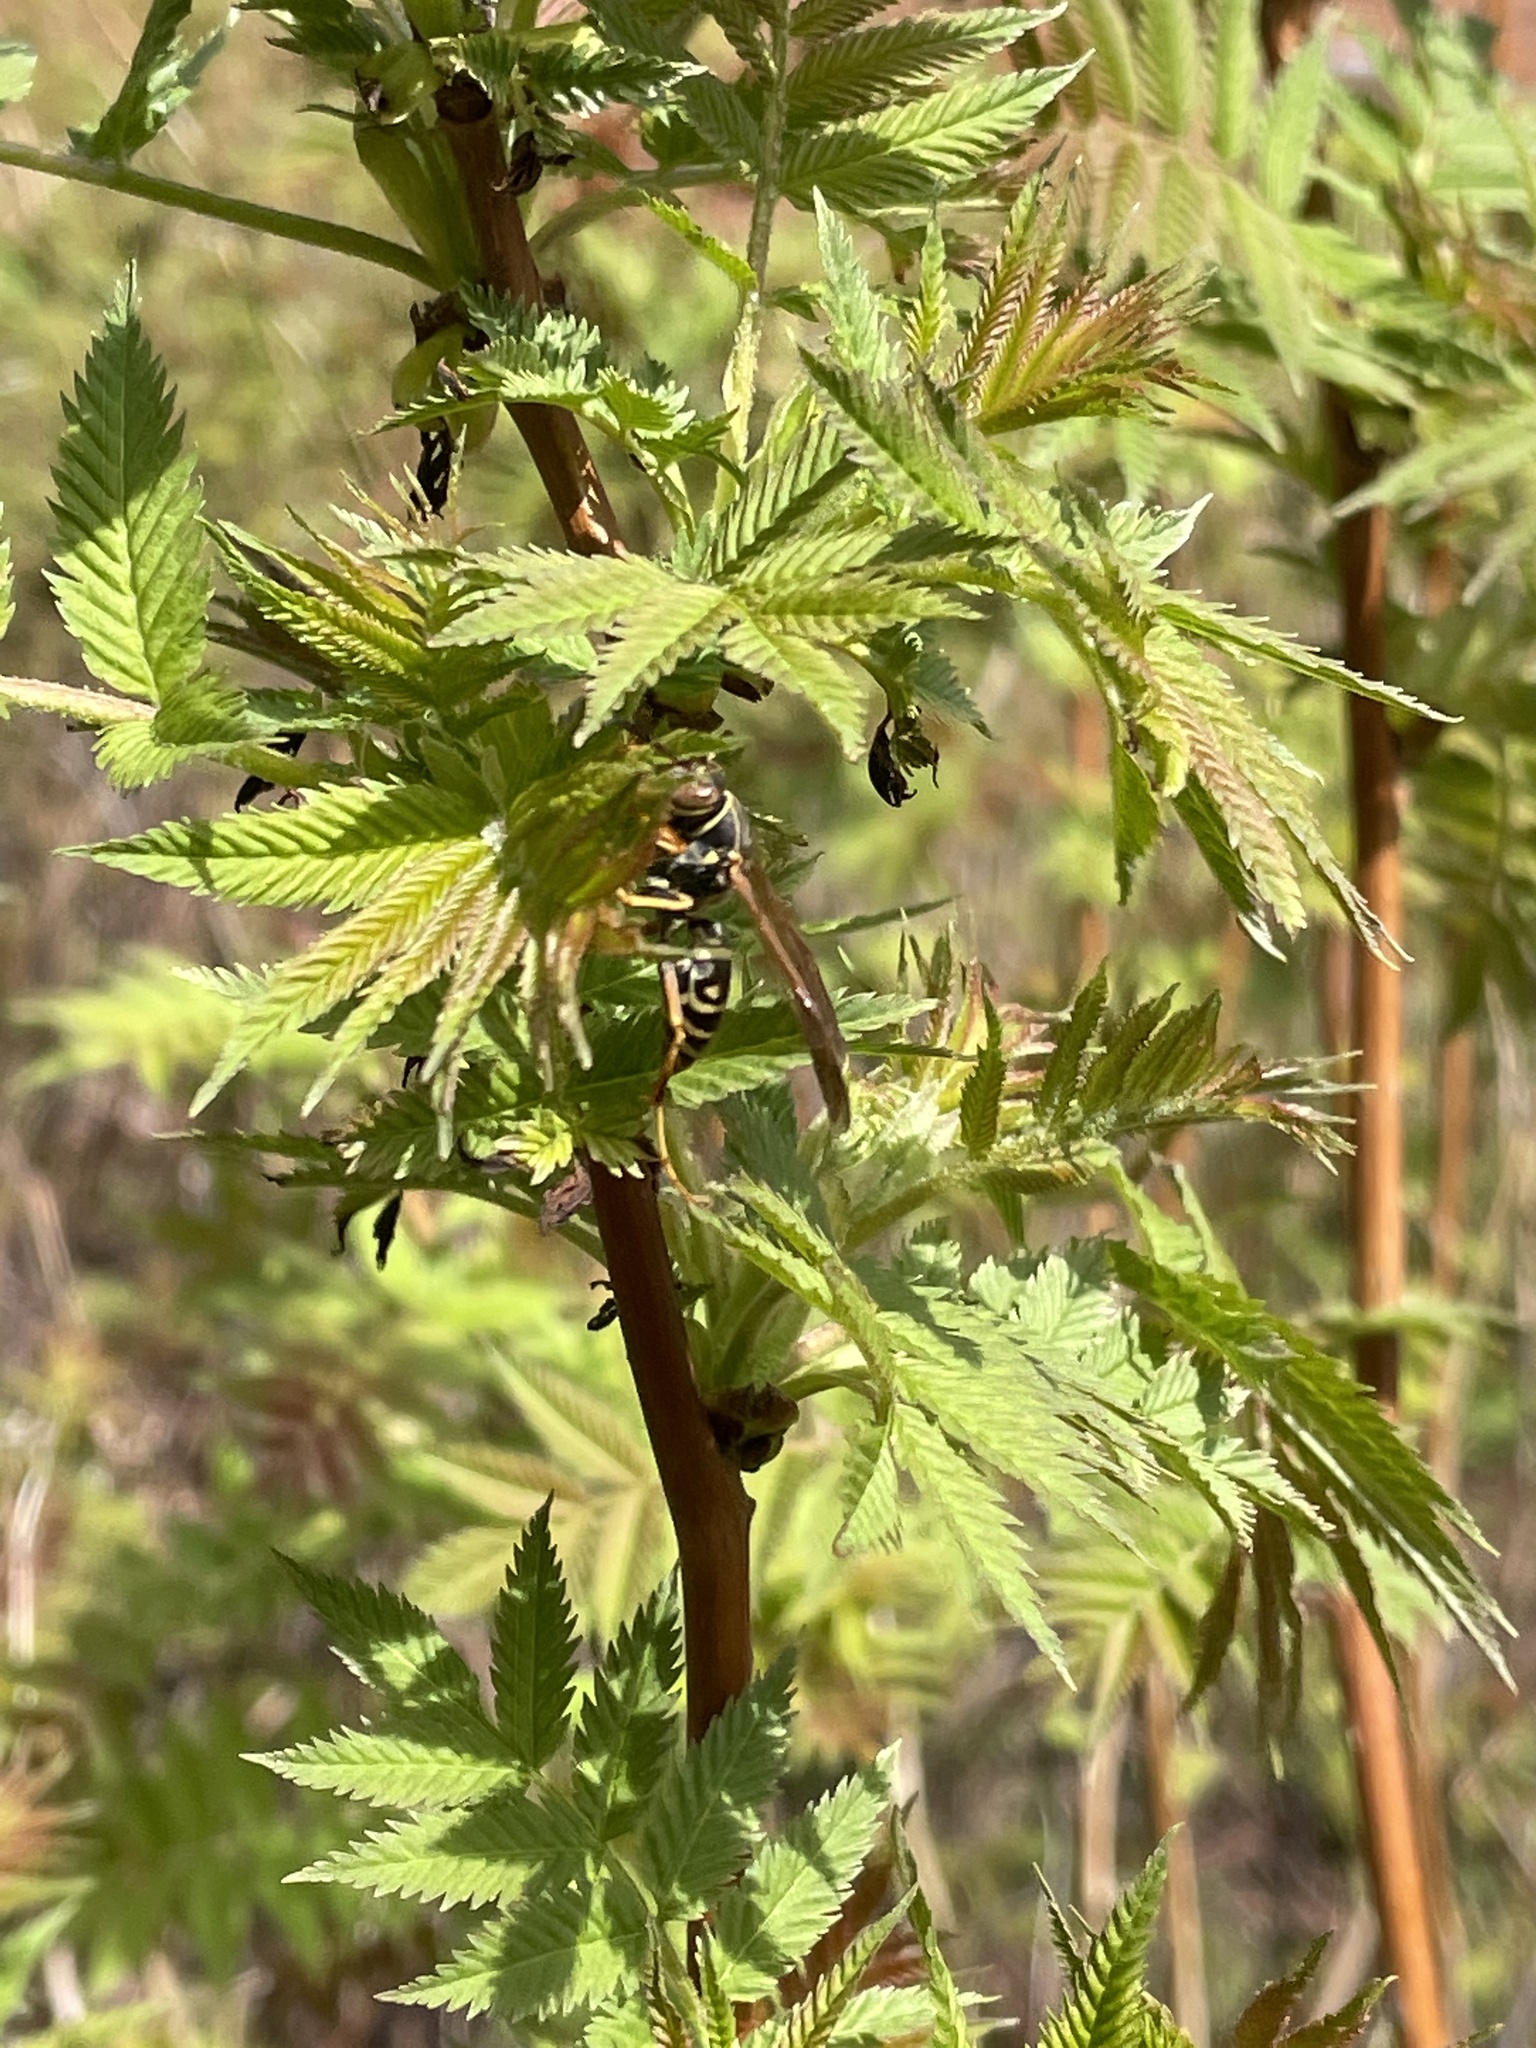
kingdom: Animalia
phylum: Arthropoda
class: Insecta
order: Hymenoptera
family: Eumenidae
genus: Polistes
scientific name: Polistes fuscatus
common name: Dark paper wasp
